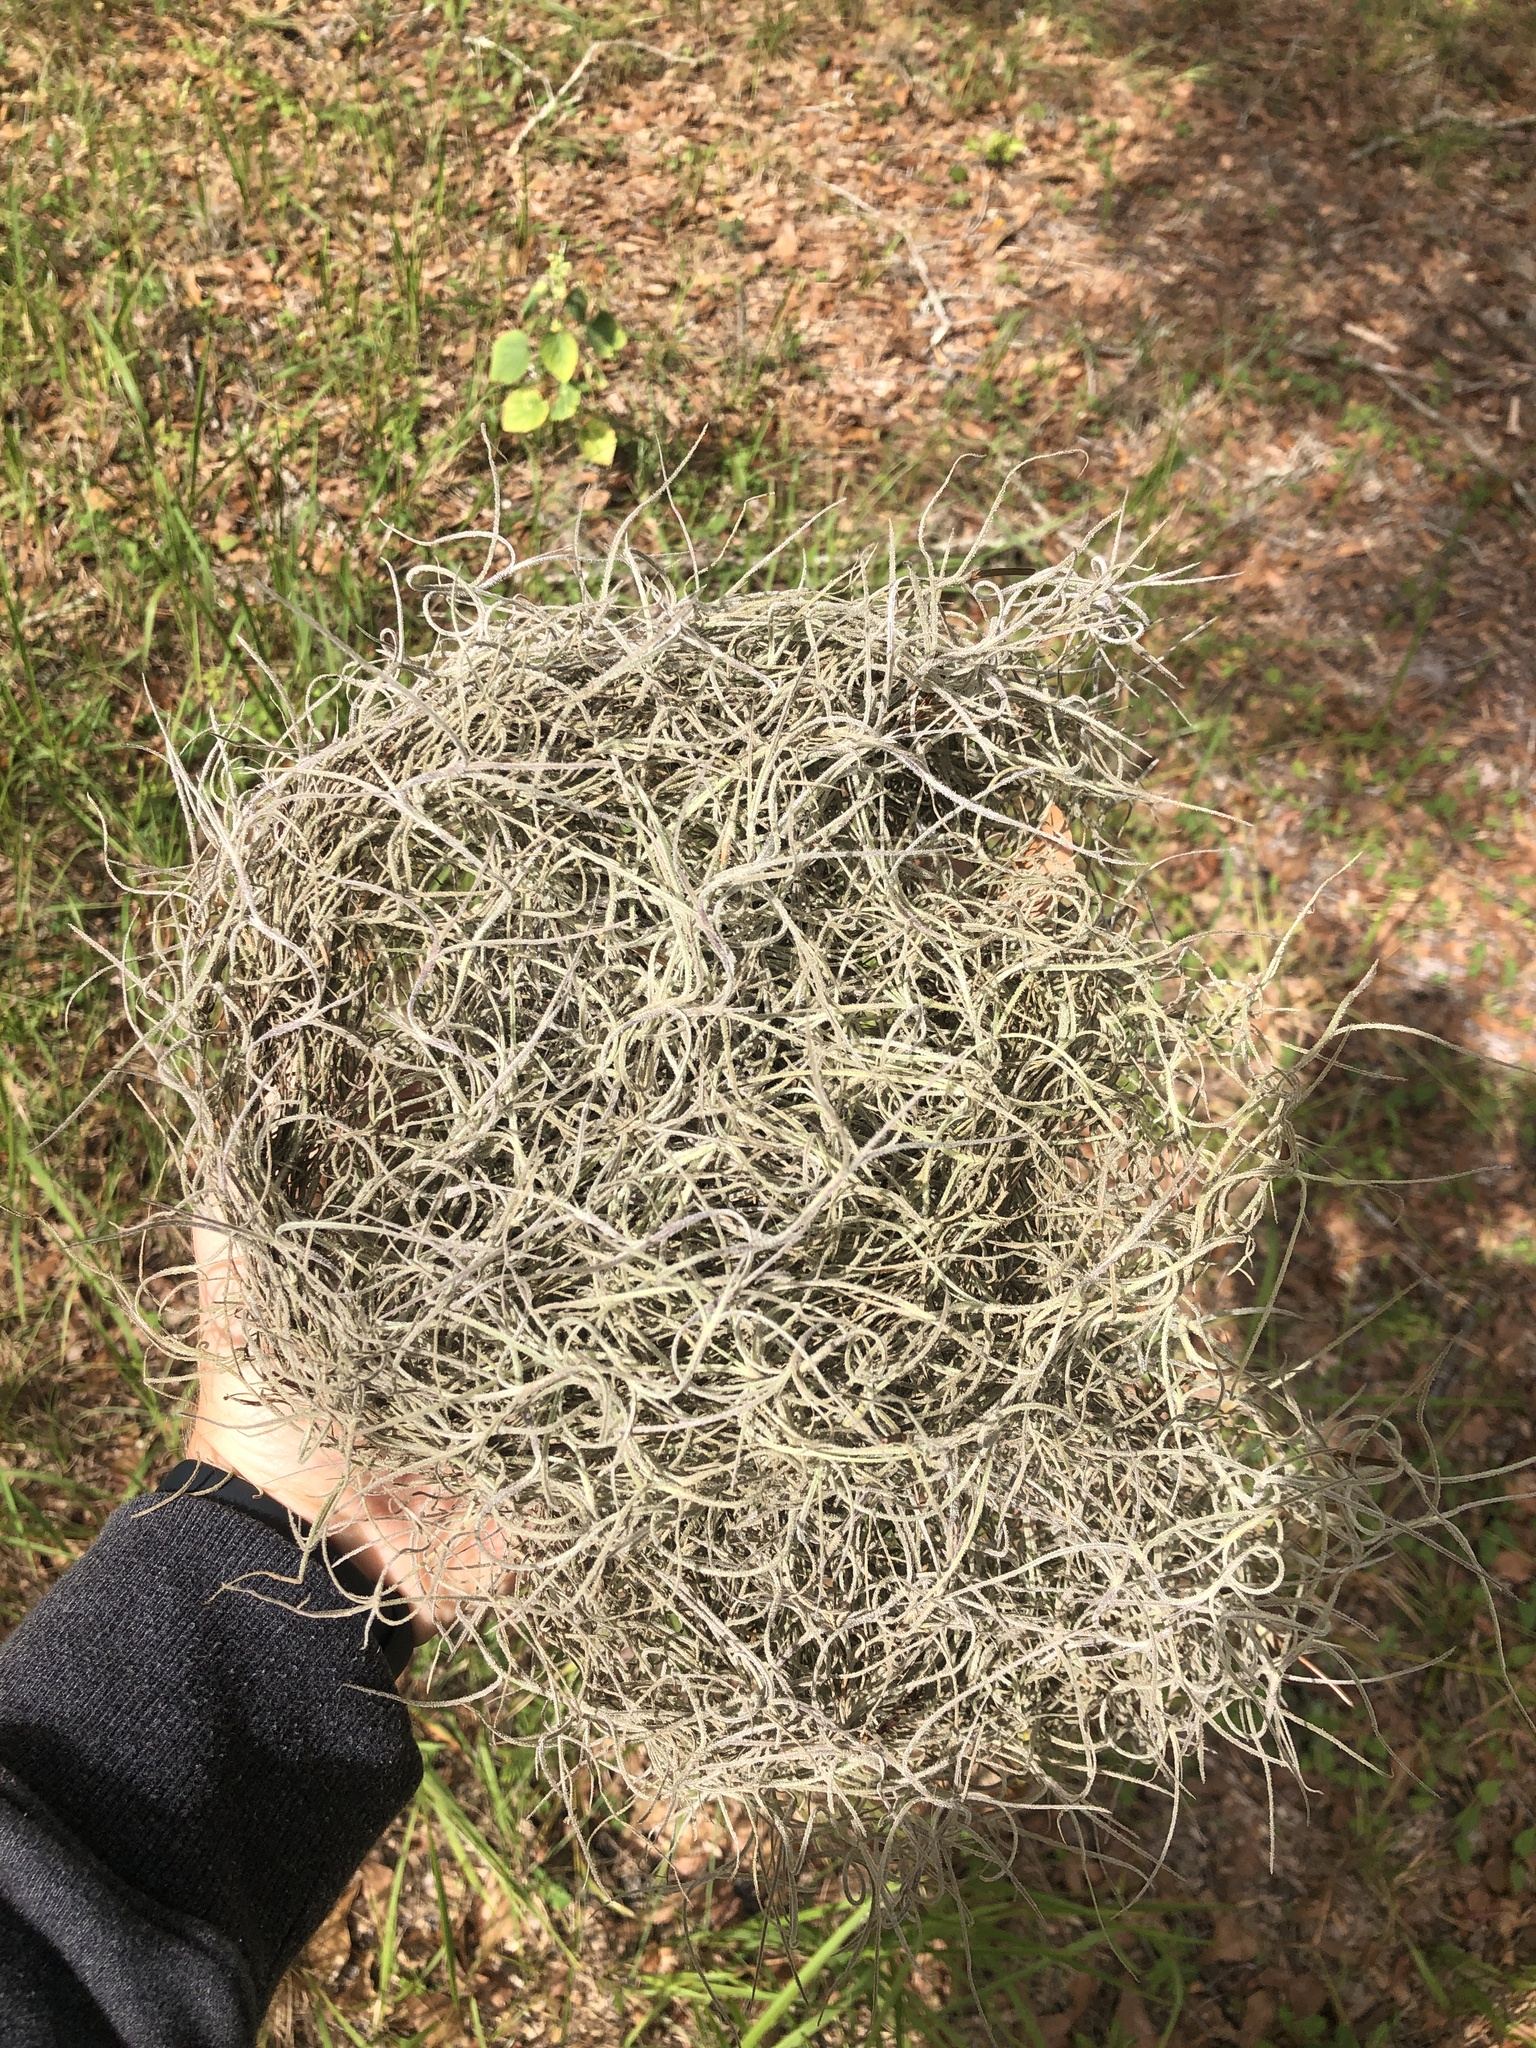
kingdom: Plantae
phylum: Tracheophyta
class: Liliopsida
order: Poales
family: Bromeliaceae
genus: Tillandsia
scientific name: Tillandsia usneoides
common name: Spanish moss
